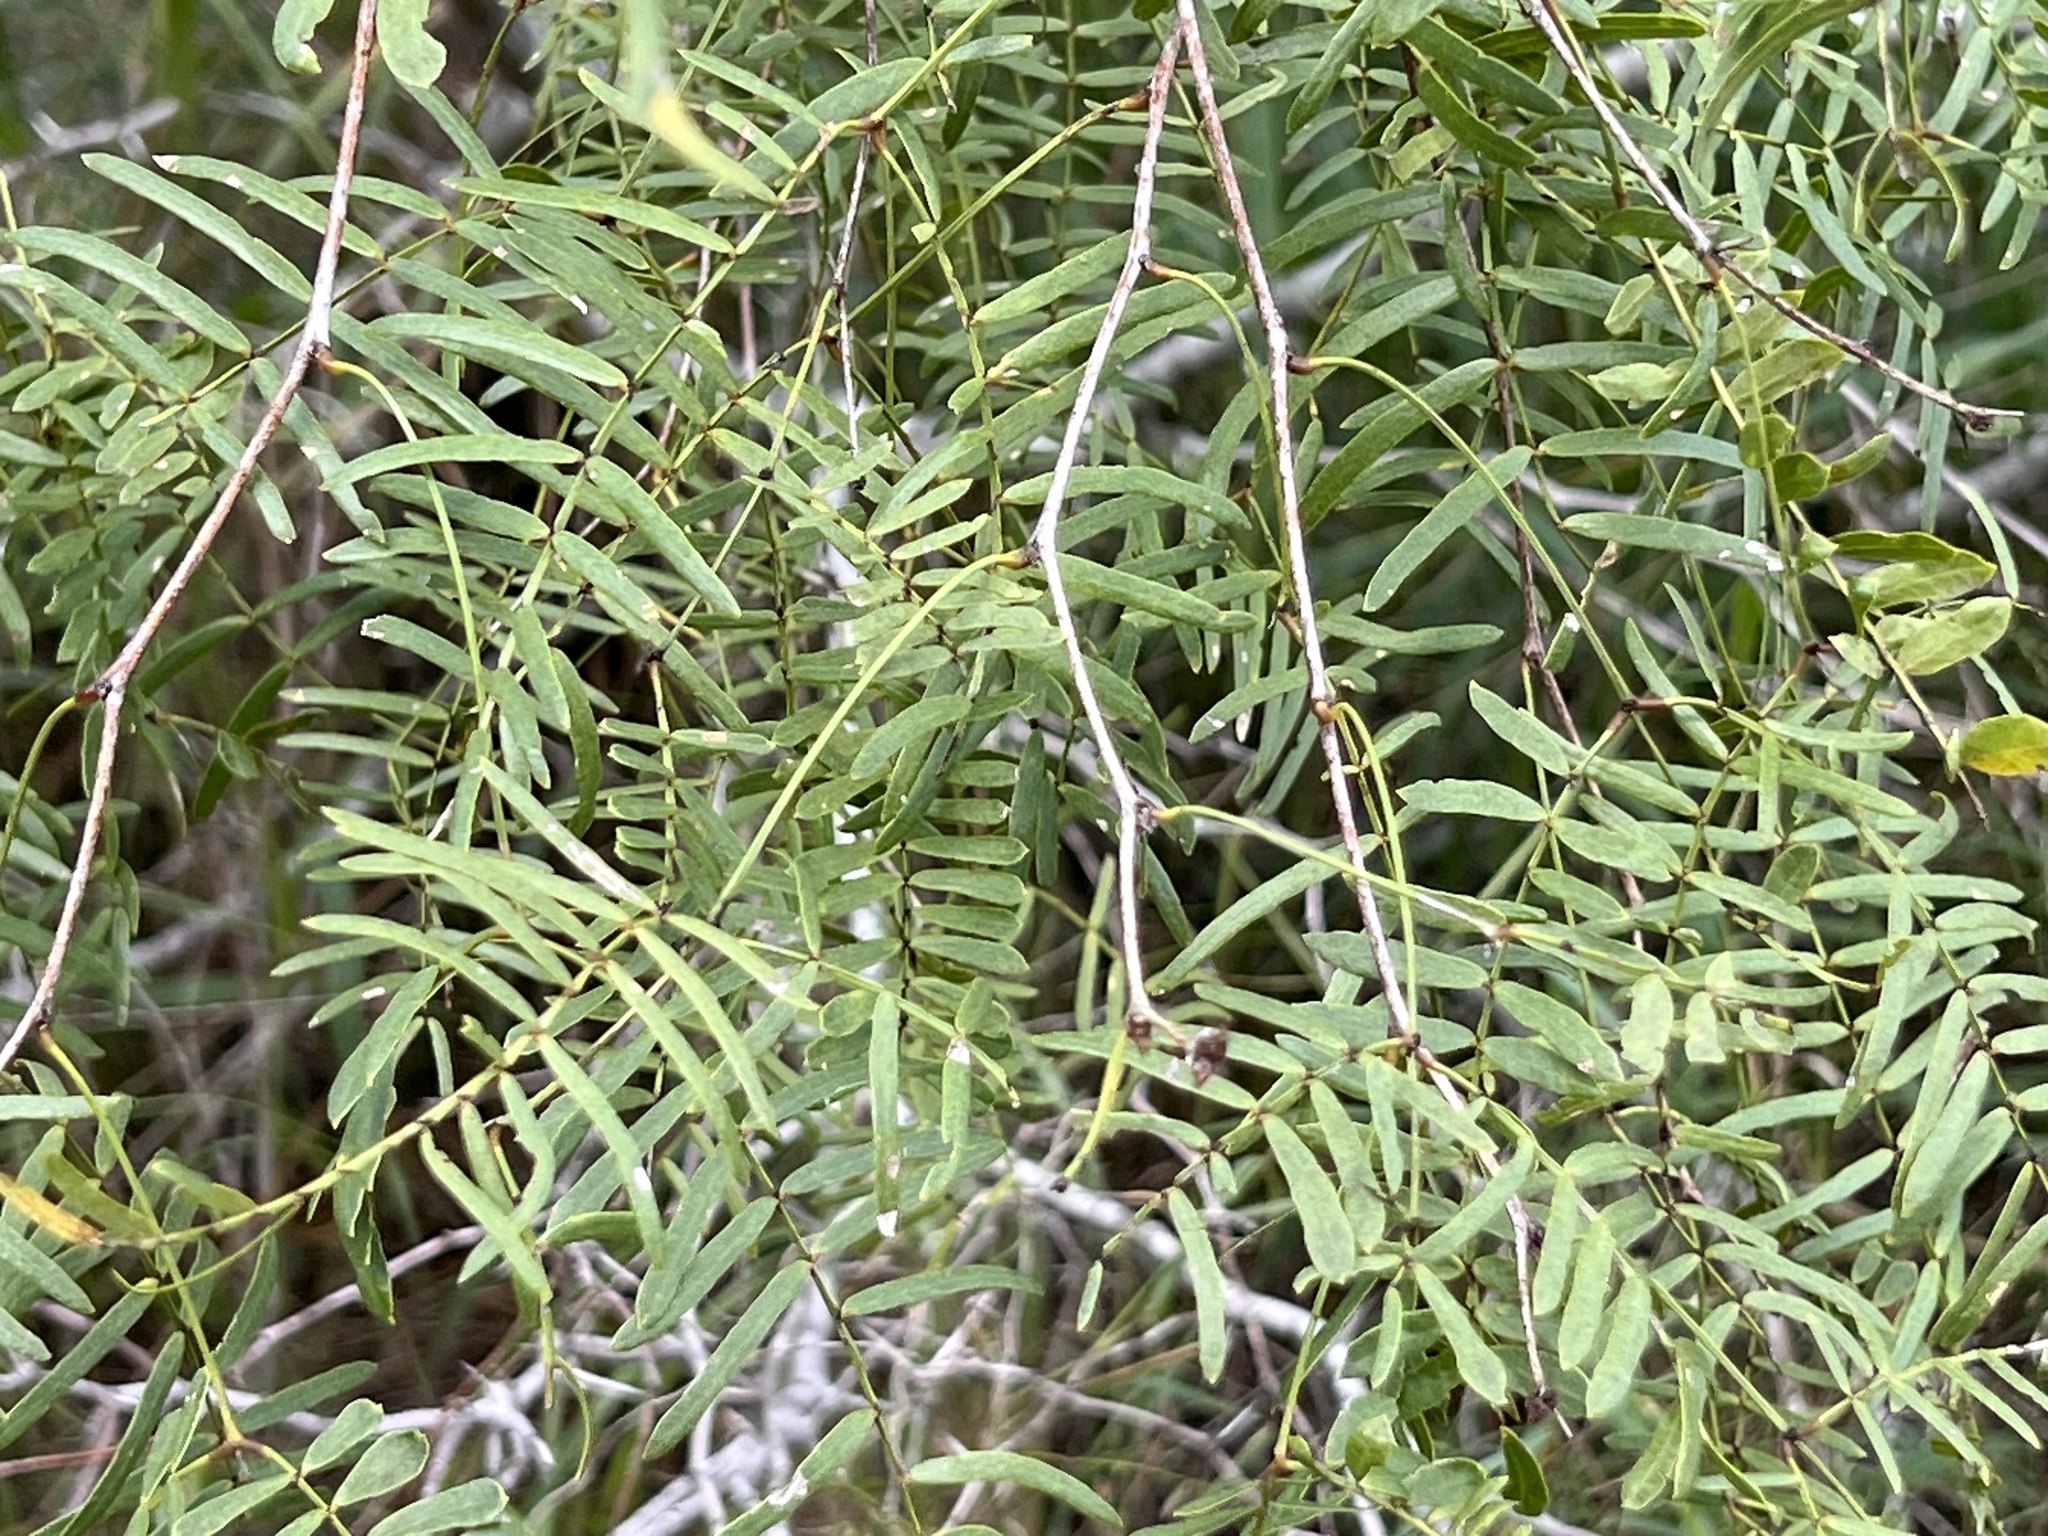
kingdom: Plantae
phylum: Tracheophyta
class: Magnoliopsida
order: Fabales
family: Fabaceae
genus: Prosopis
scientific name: Prosopis glandulosa
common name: Honey mesquite
